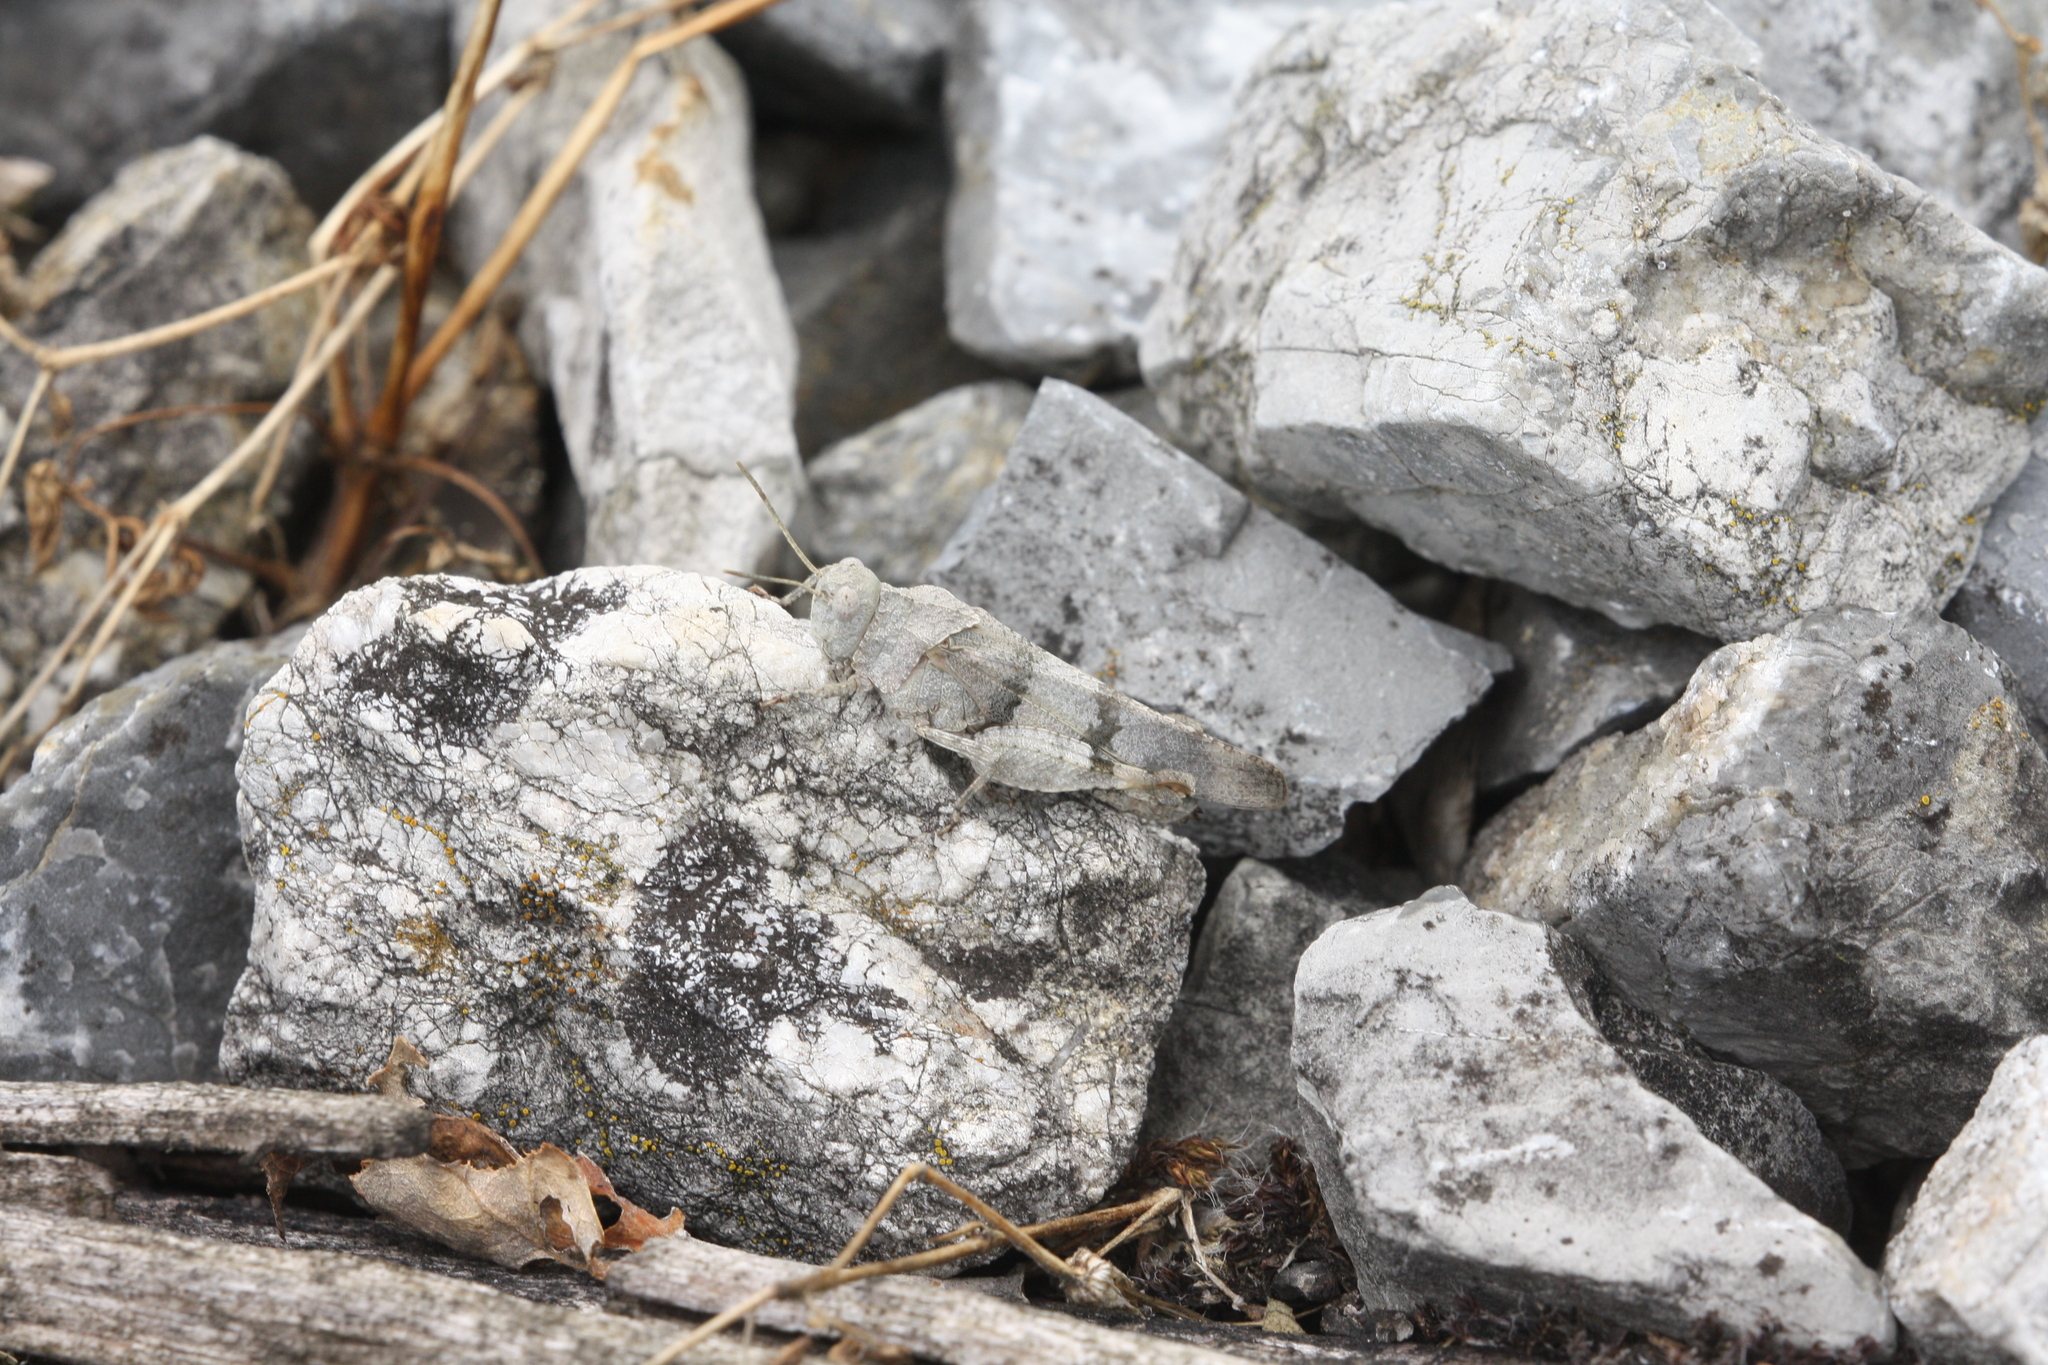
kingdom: Animalia
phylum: Arthropoda
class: Insecta
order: Orthoptera
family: Acrididae
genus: Oedipoda
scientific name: Oedipoda caerulescens
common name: Blue-winged grasshopper
